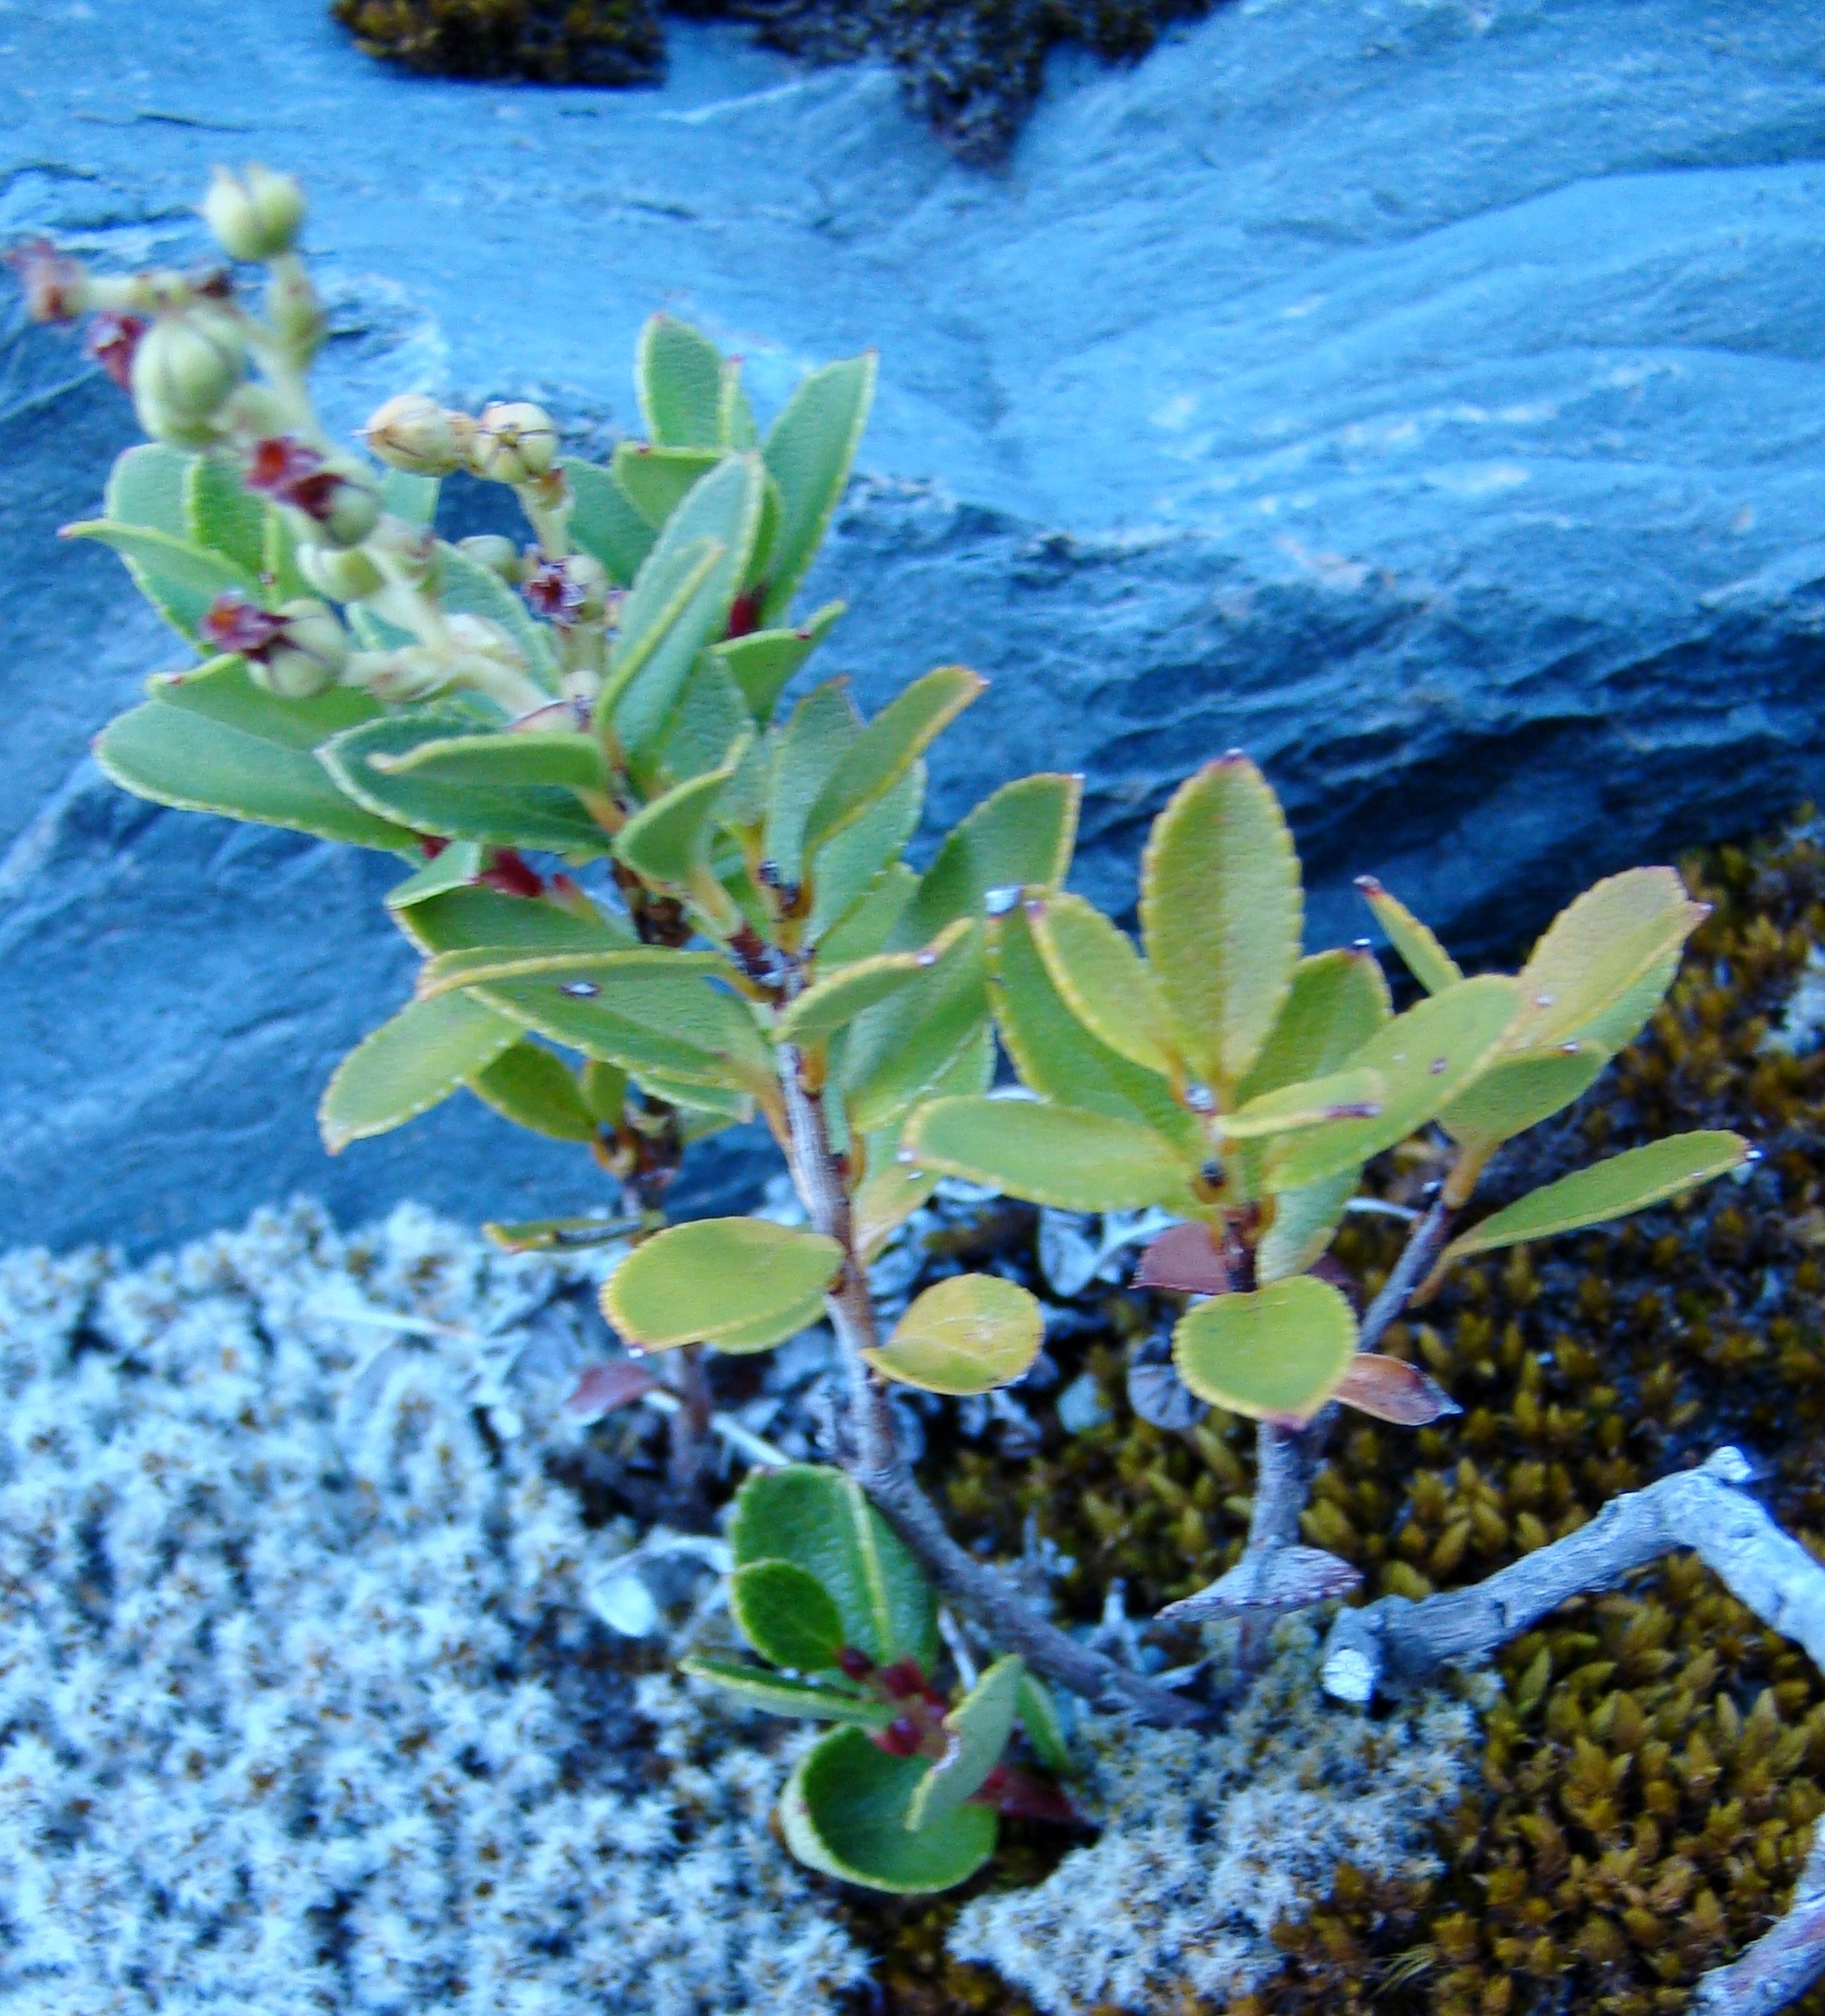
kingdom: Plantae
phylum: Tracheophyta
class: Magnoliopsida
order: Ericales
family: Ericaceae
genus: Gaultheria
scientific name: Gaultheria crassa
